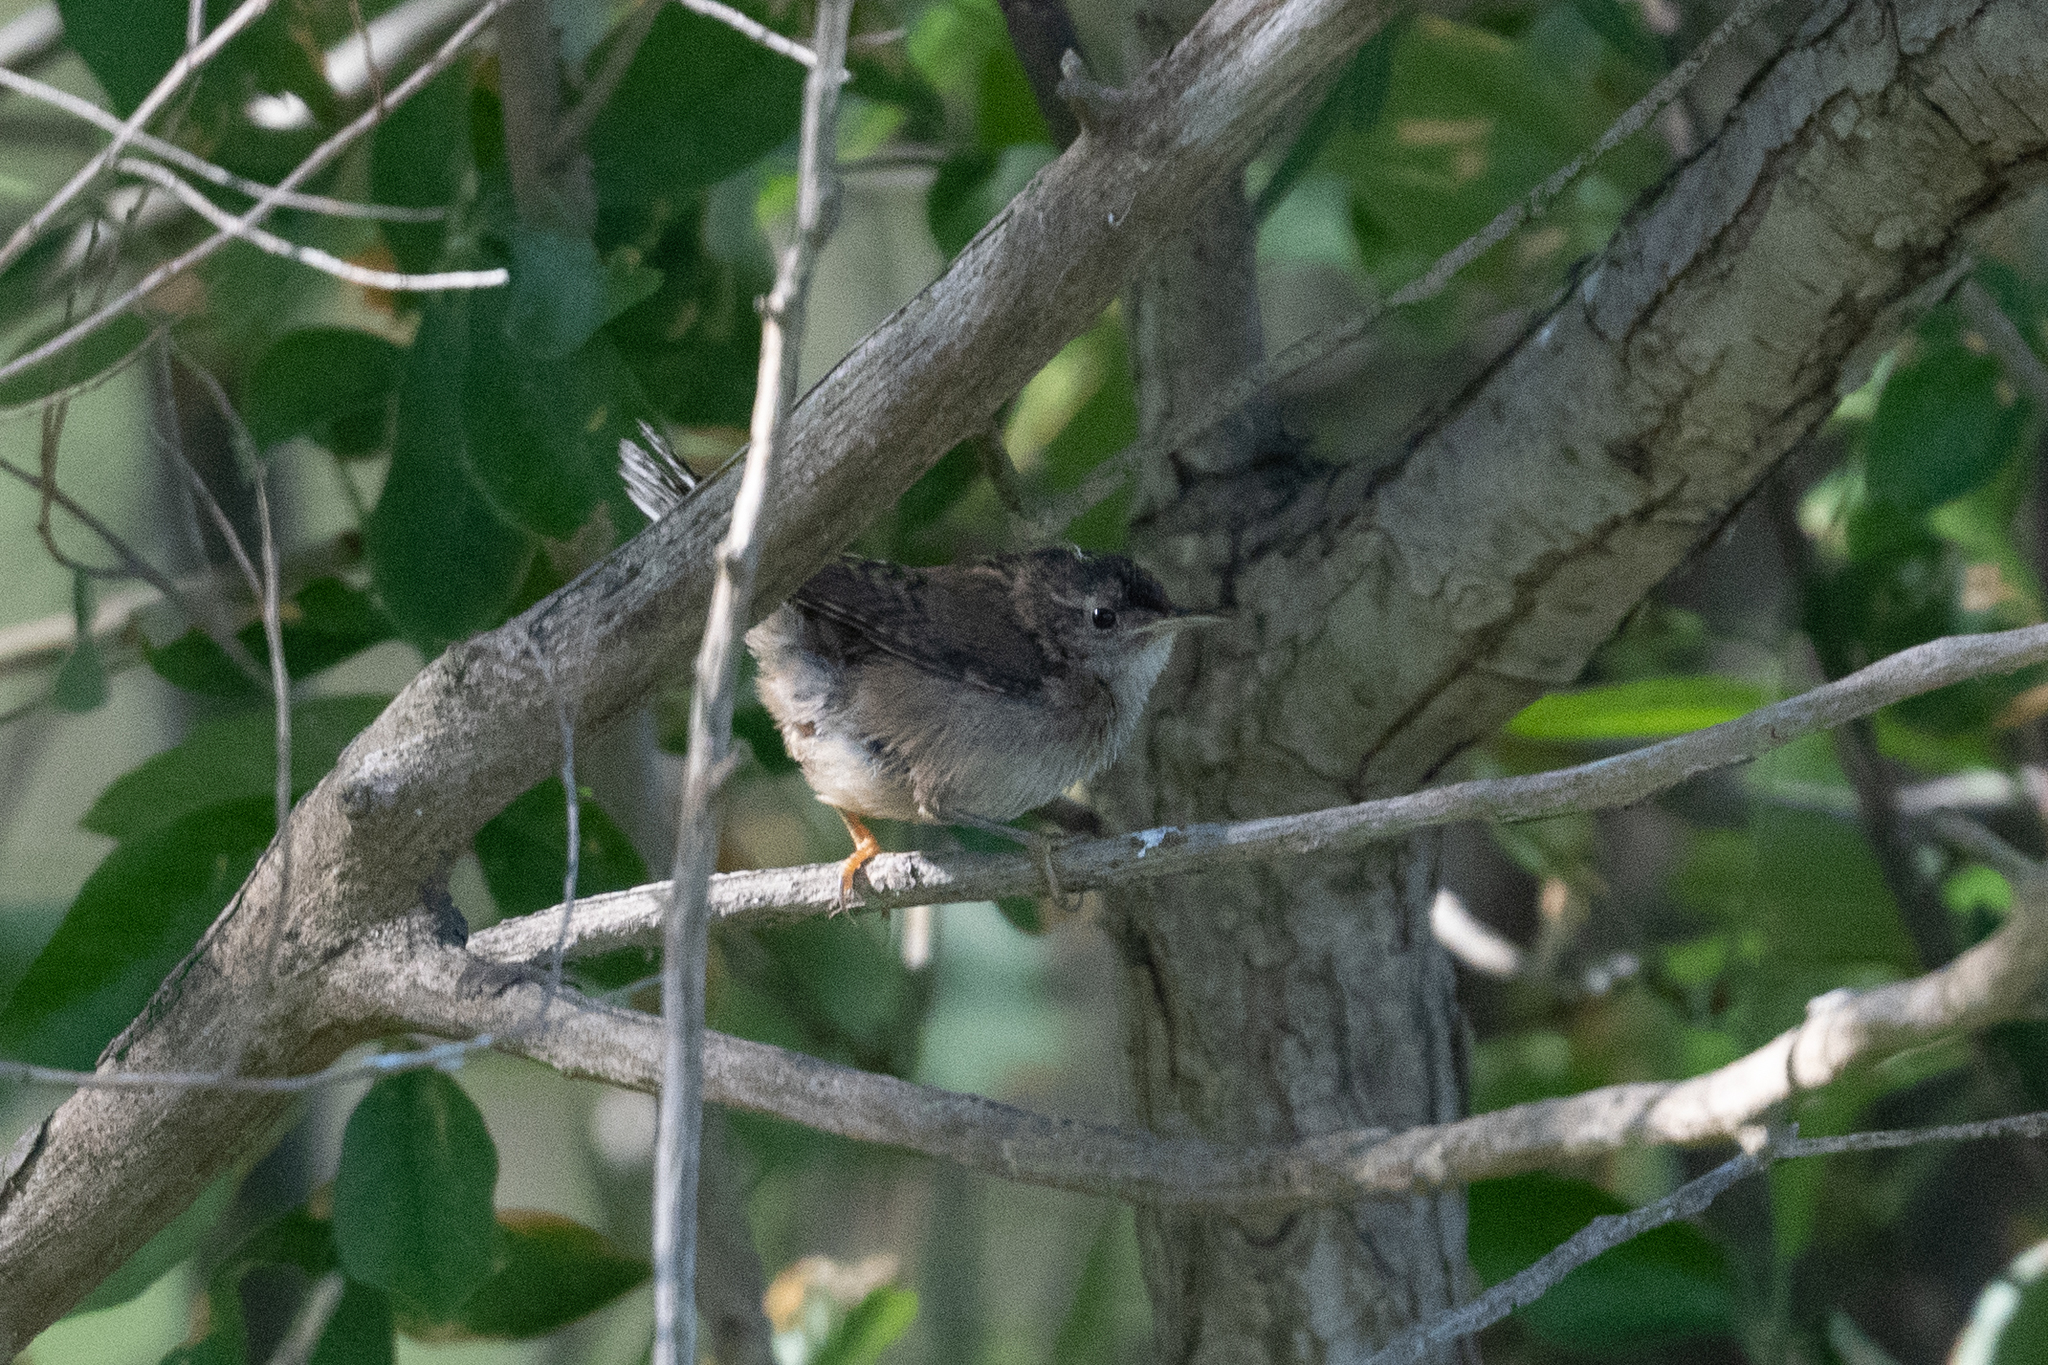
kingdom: Animalia
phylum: Chordata
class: Aves
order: Passeriformes
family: Troglodytidae
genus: Troglodytes
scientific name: Troglodytes aedon
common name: House wren
